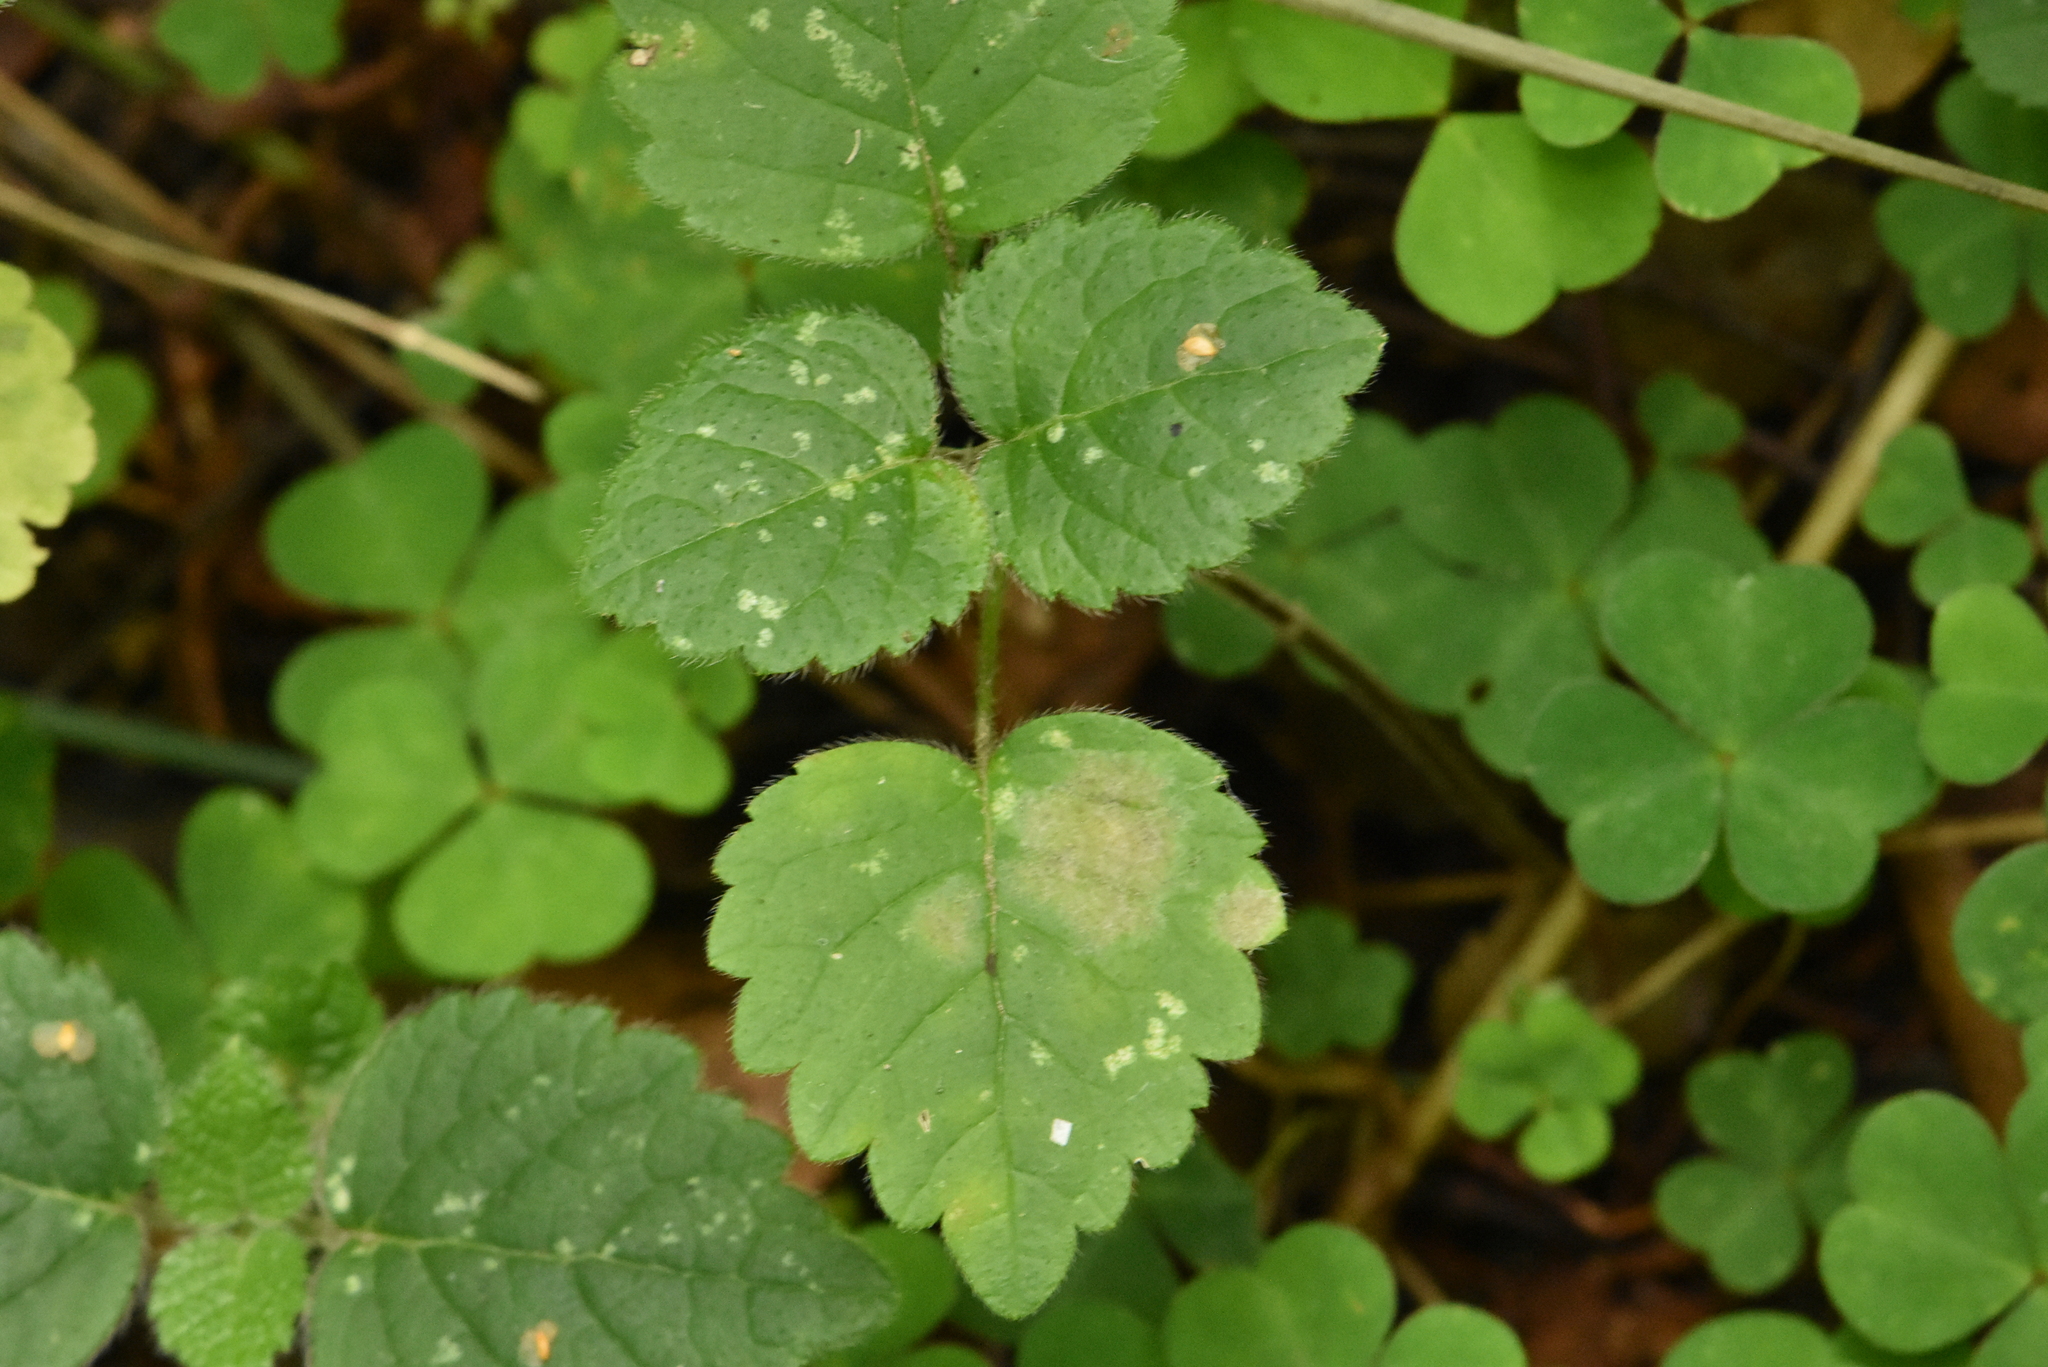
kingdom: Plantae
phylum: Tracheophyta
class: Magnoliopsida
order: Lamiales
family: Lamiaceae
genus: Lamium
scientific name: Lamium galeobdolon
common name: Yellow archangel
